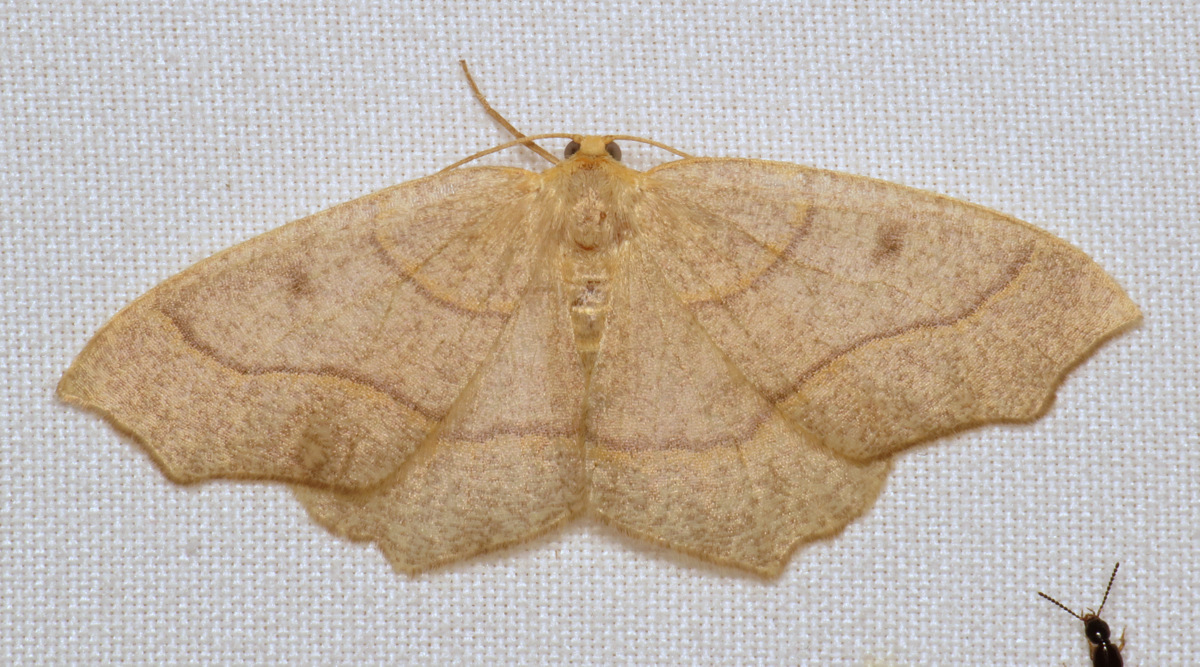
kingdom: Animalia
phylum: Arthropoda
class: Insecta
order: Lepidoptera
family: Geometridae
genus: Lambdina
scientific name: Lambdina fiscellaria
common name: Hemlock looper
